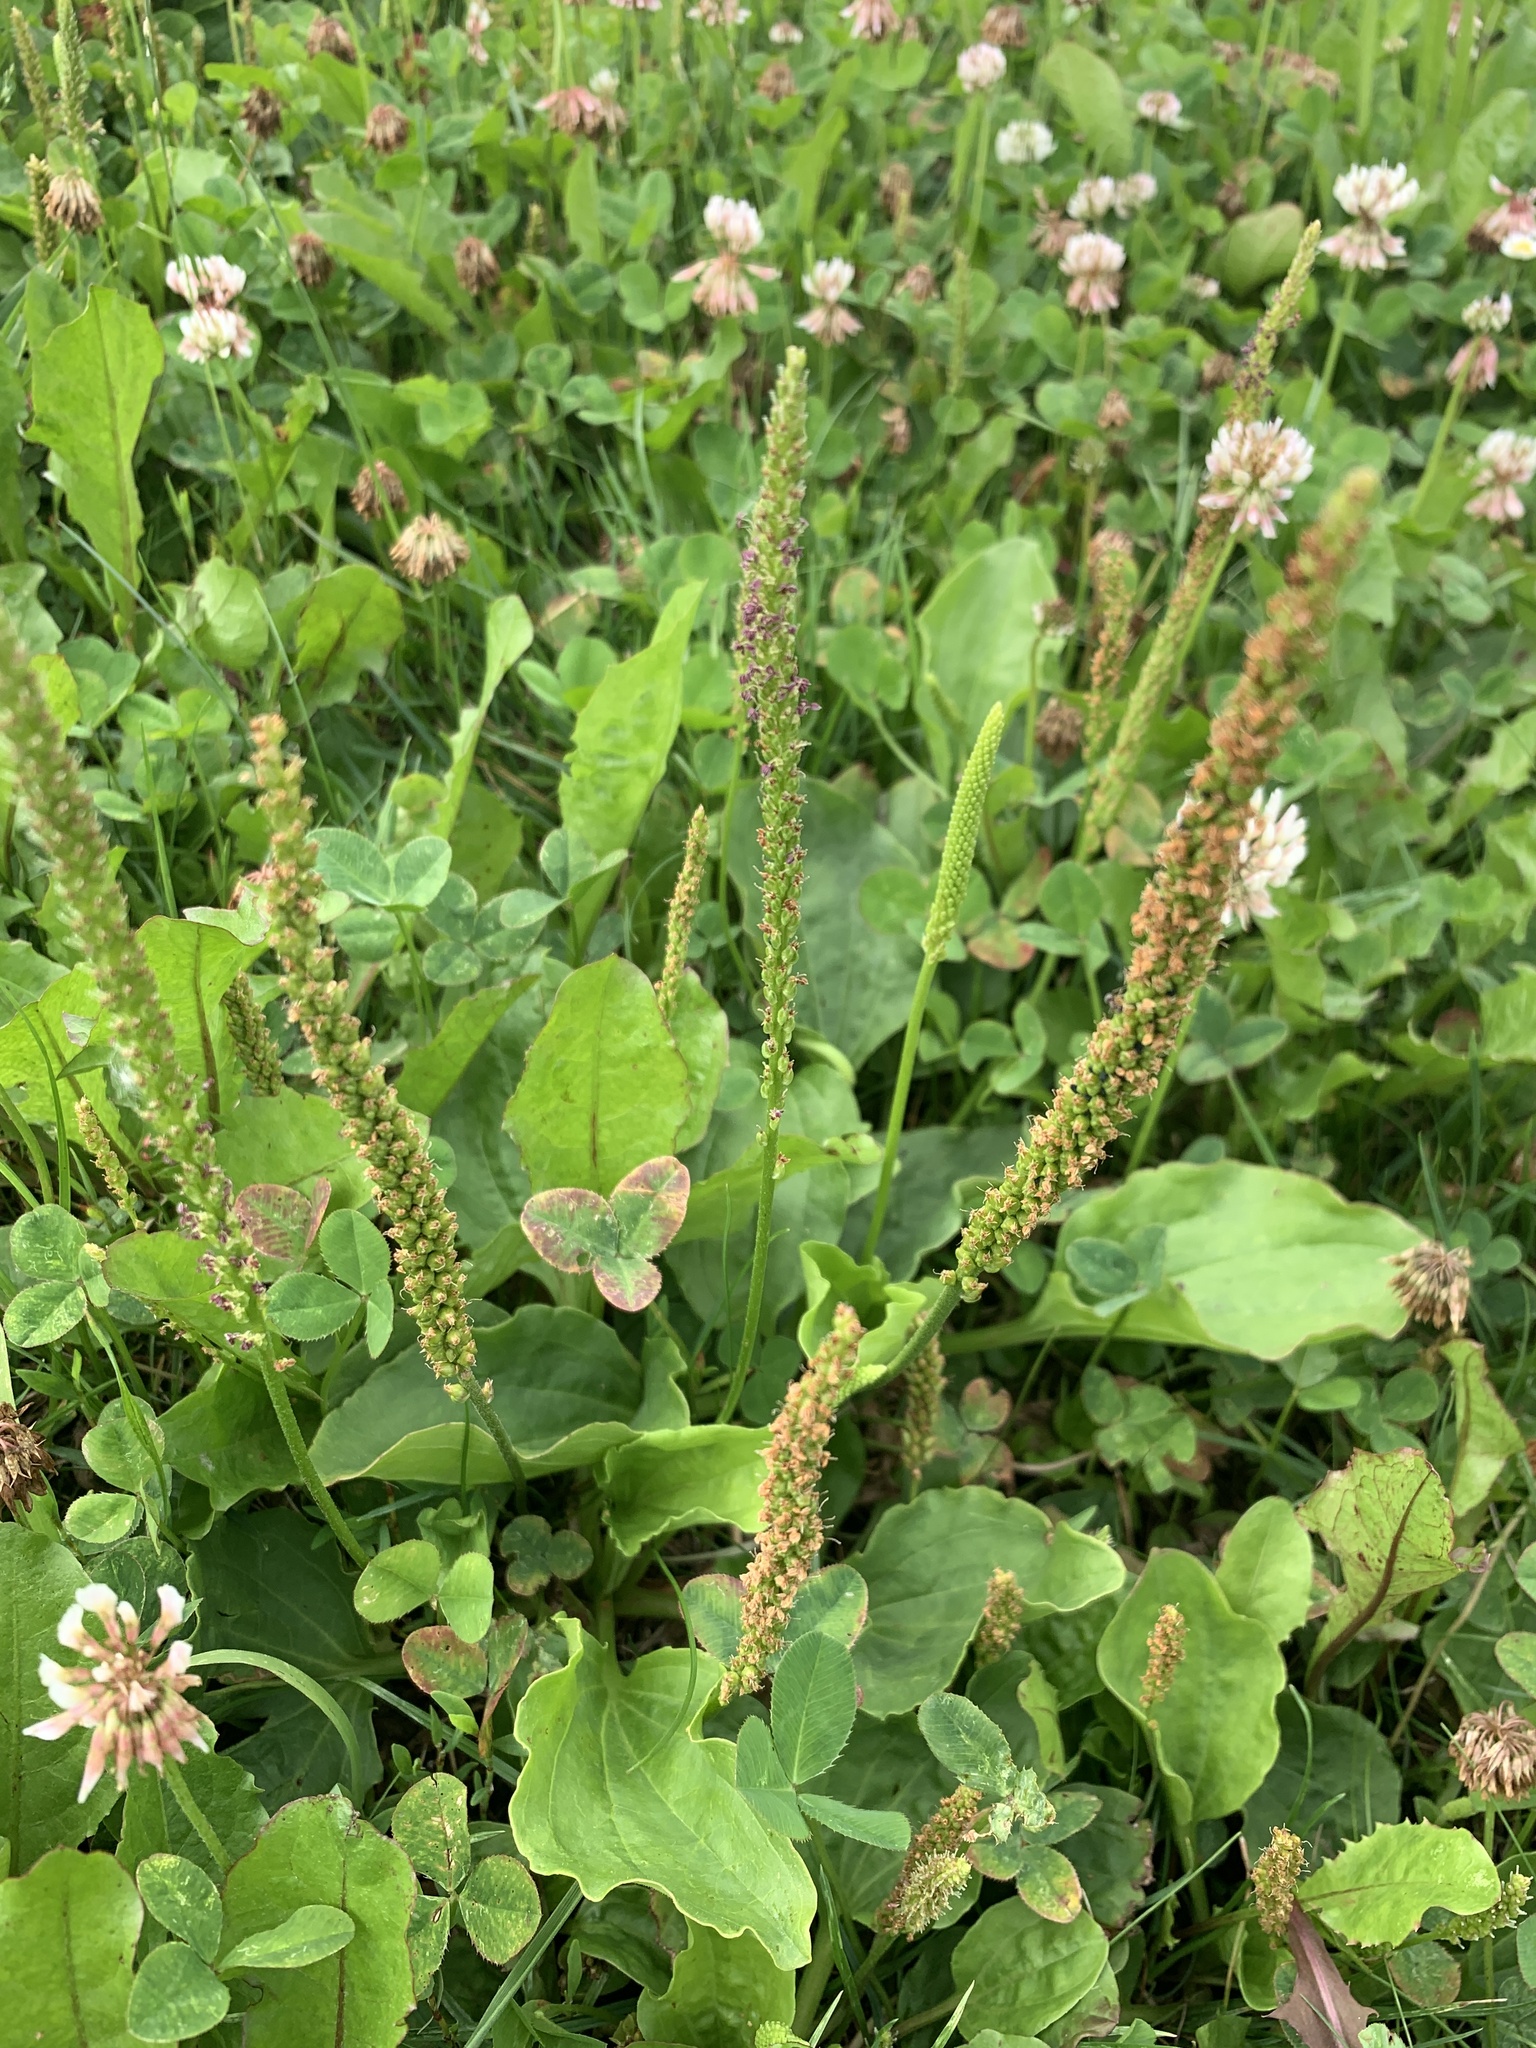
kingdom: Plantae
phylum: Tracheophyta
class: Magnoliopsida
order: Lamiales
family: Plantaginaceae
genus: Plantago
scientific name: Plantago major
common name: Common plantain
